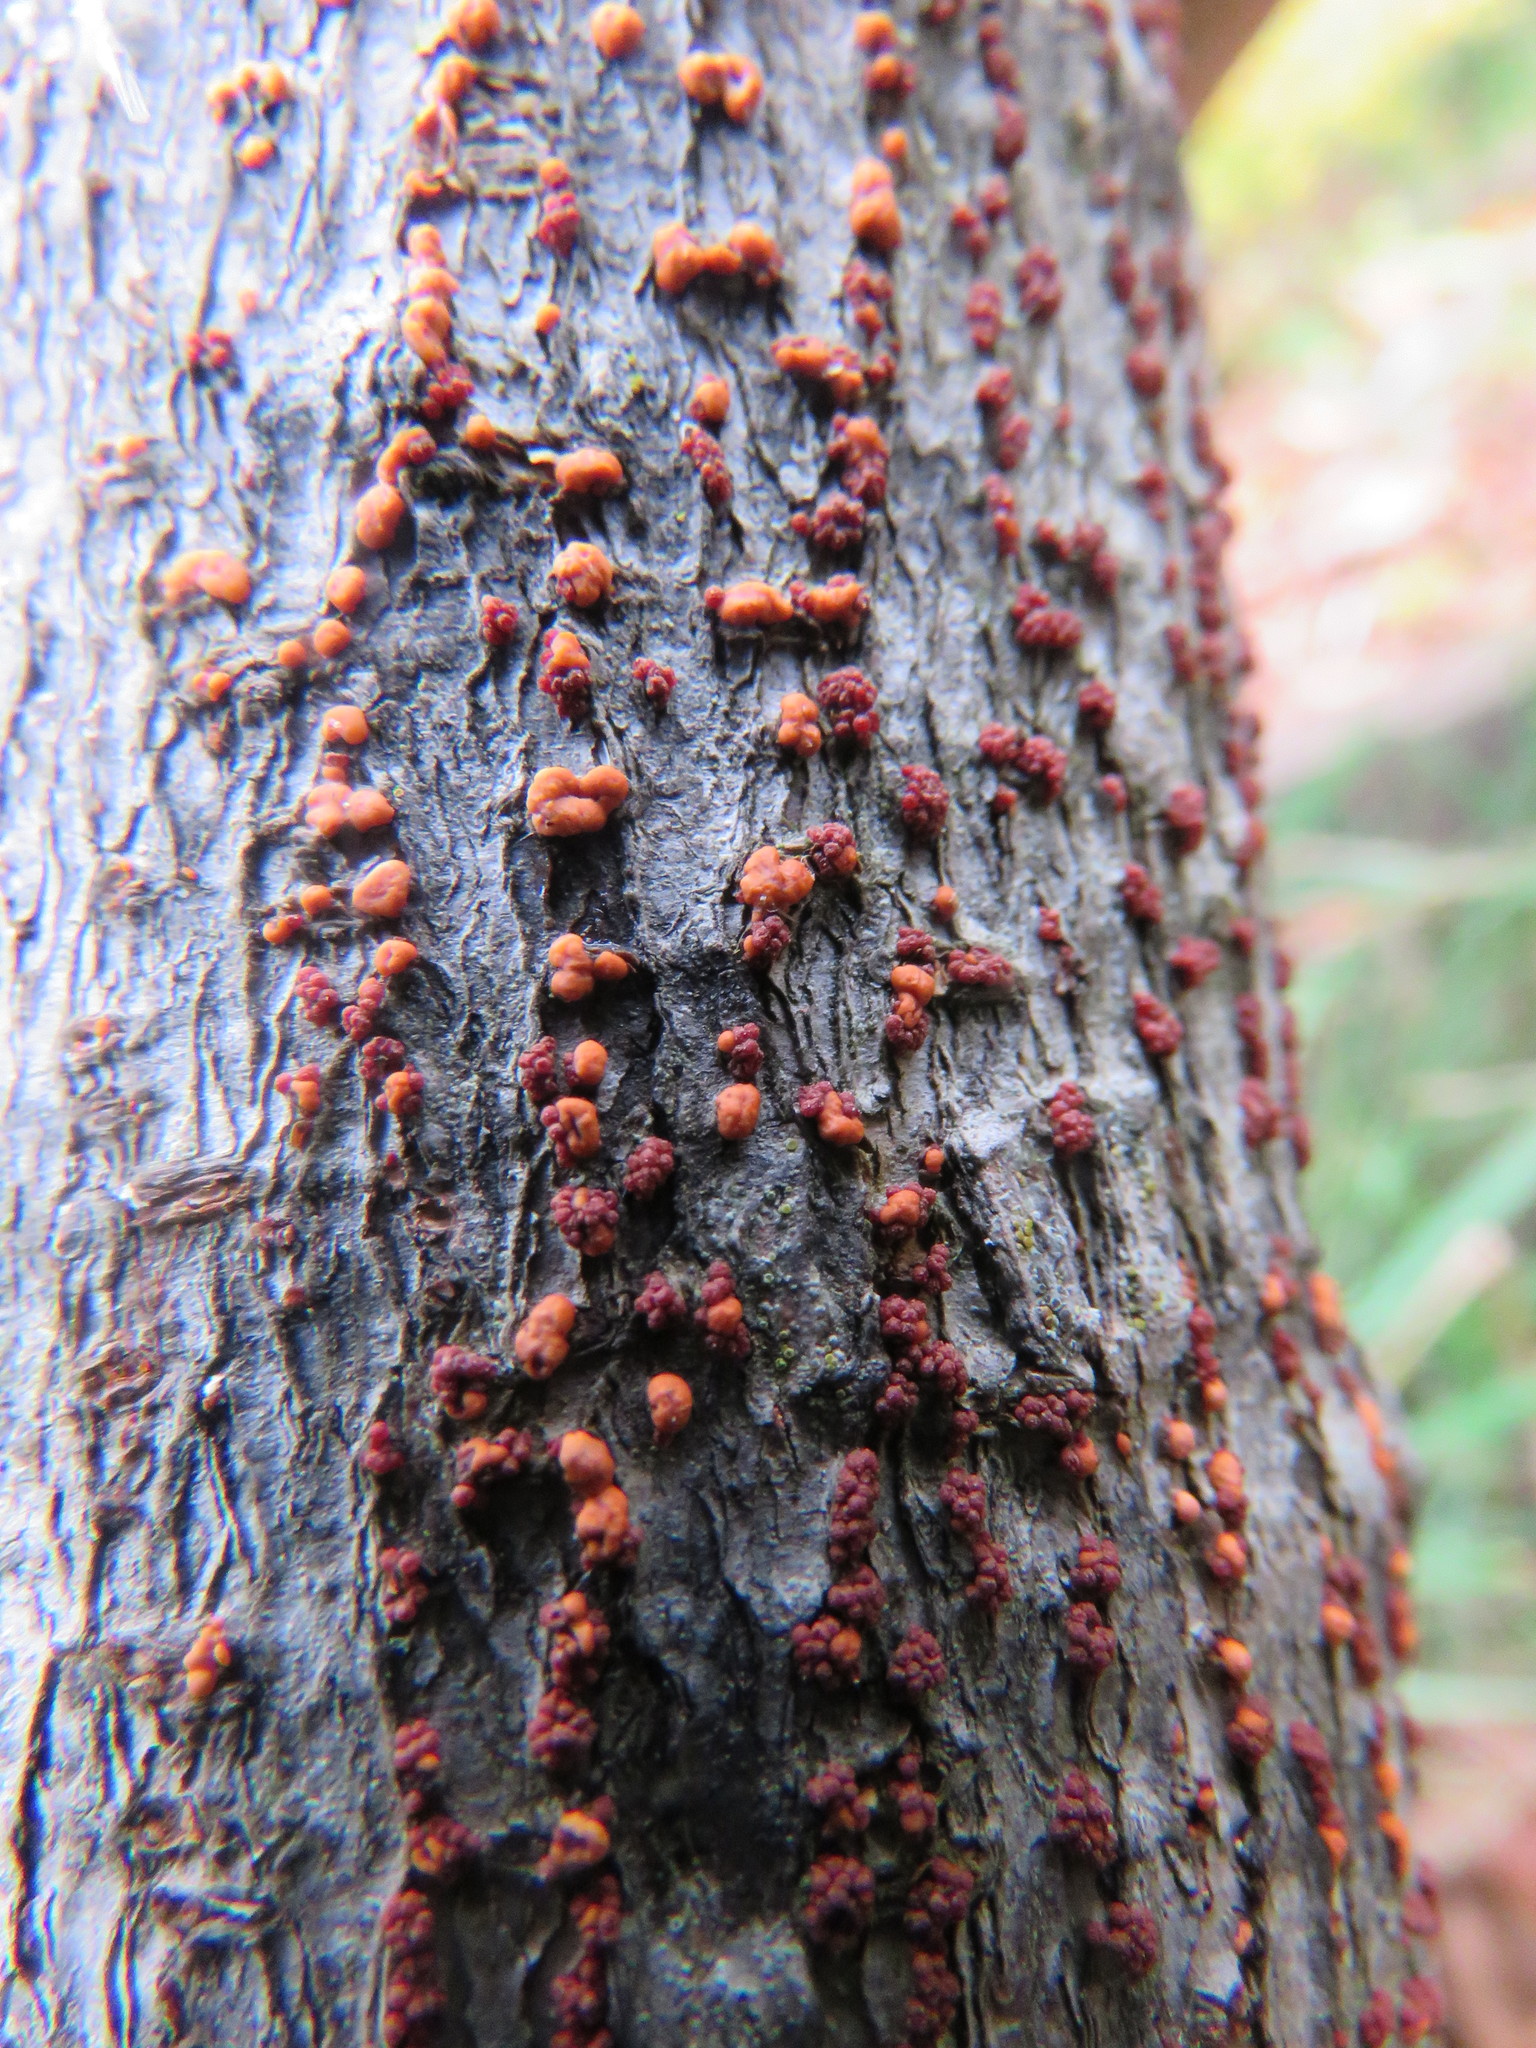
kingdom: Fungi
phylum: Ascomycota
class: Sordariomycetes
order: Hypocreales
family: Nectriaceae
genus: Nectria
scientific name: Nectria cinnabarina
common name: Coral spot
